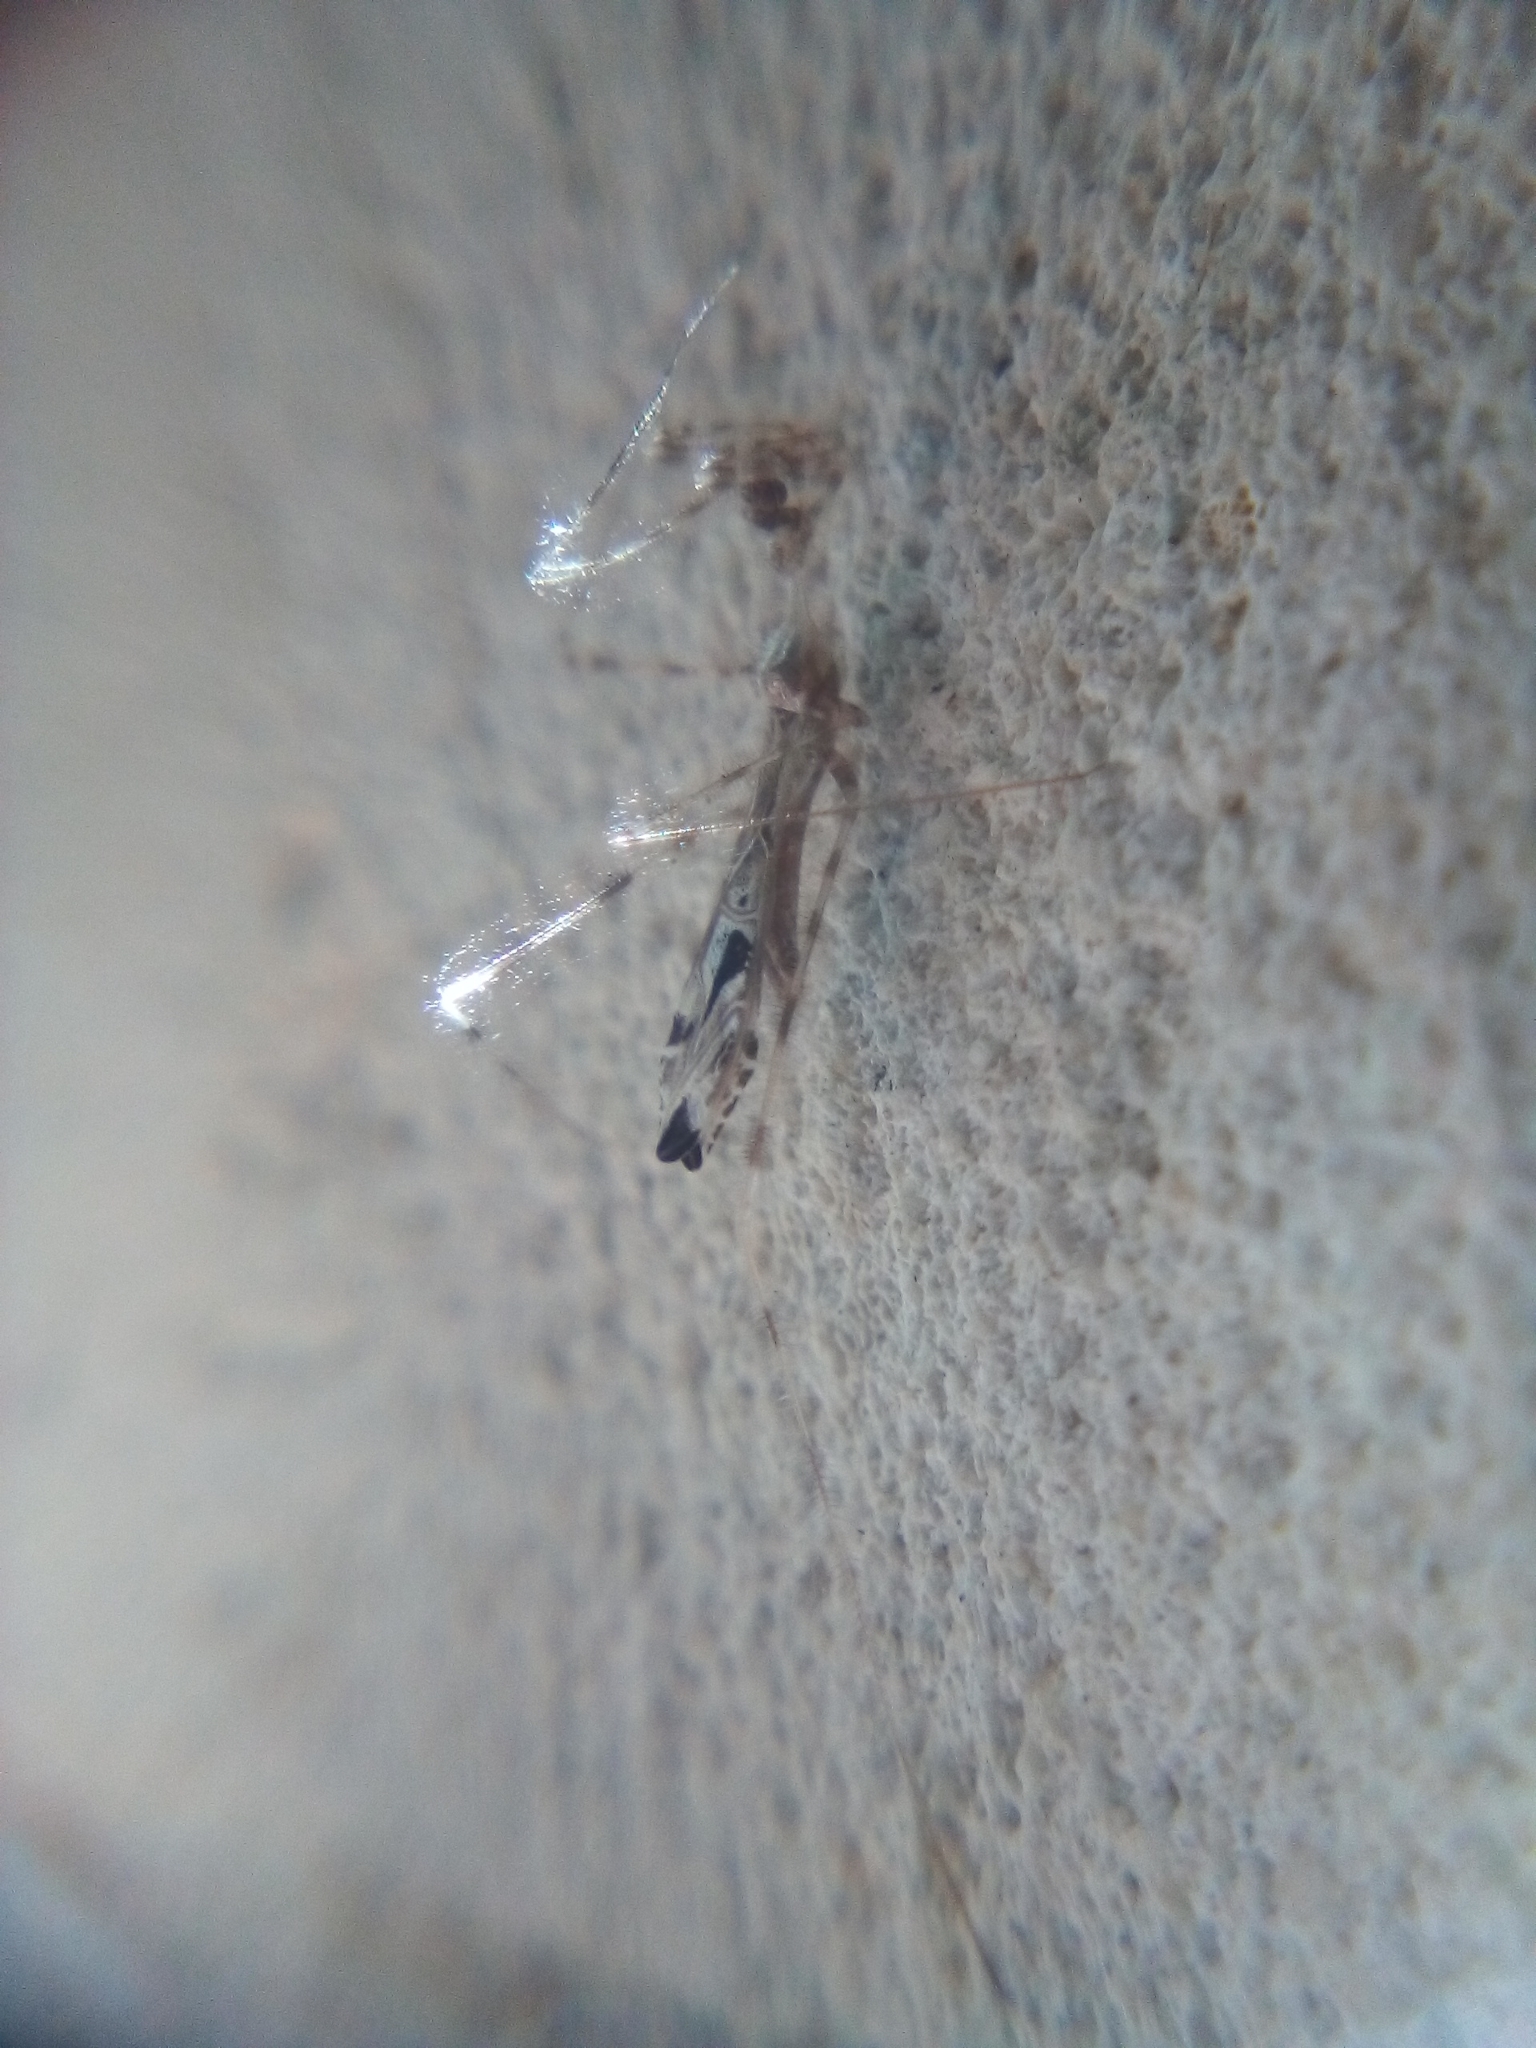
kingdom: Animalia
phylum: Arthropoda
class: Insecta
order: Hemiptera
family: Reduviidae
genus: Stenolemus
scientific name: Stenolemus fraterculus
